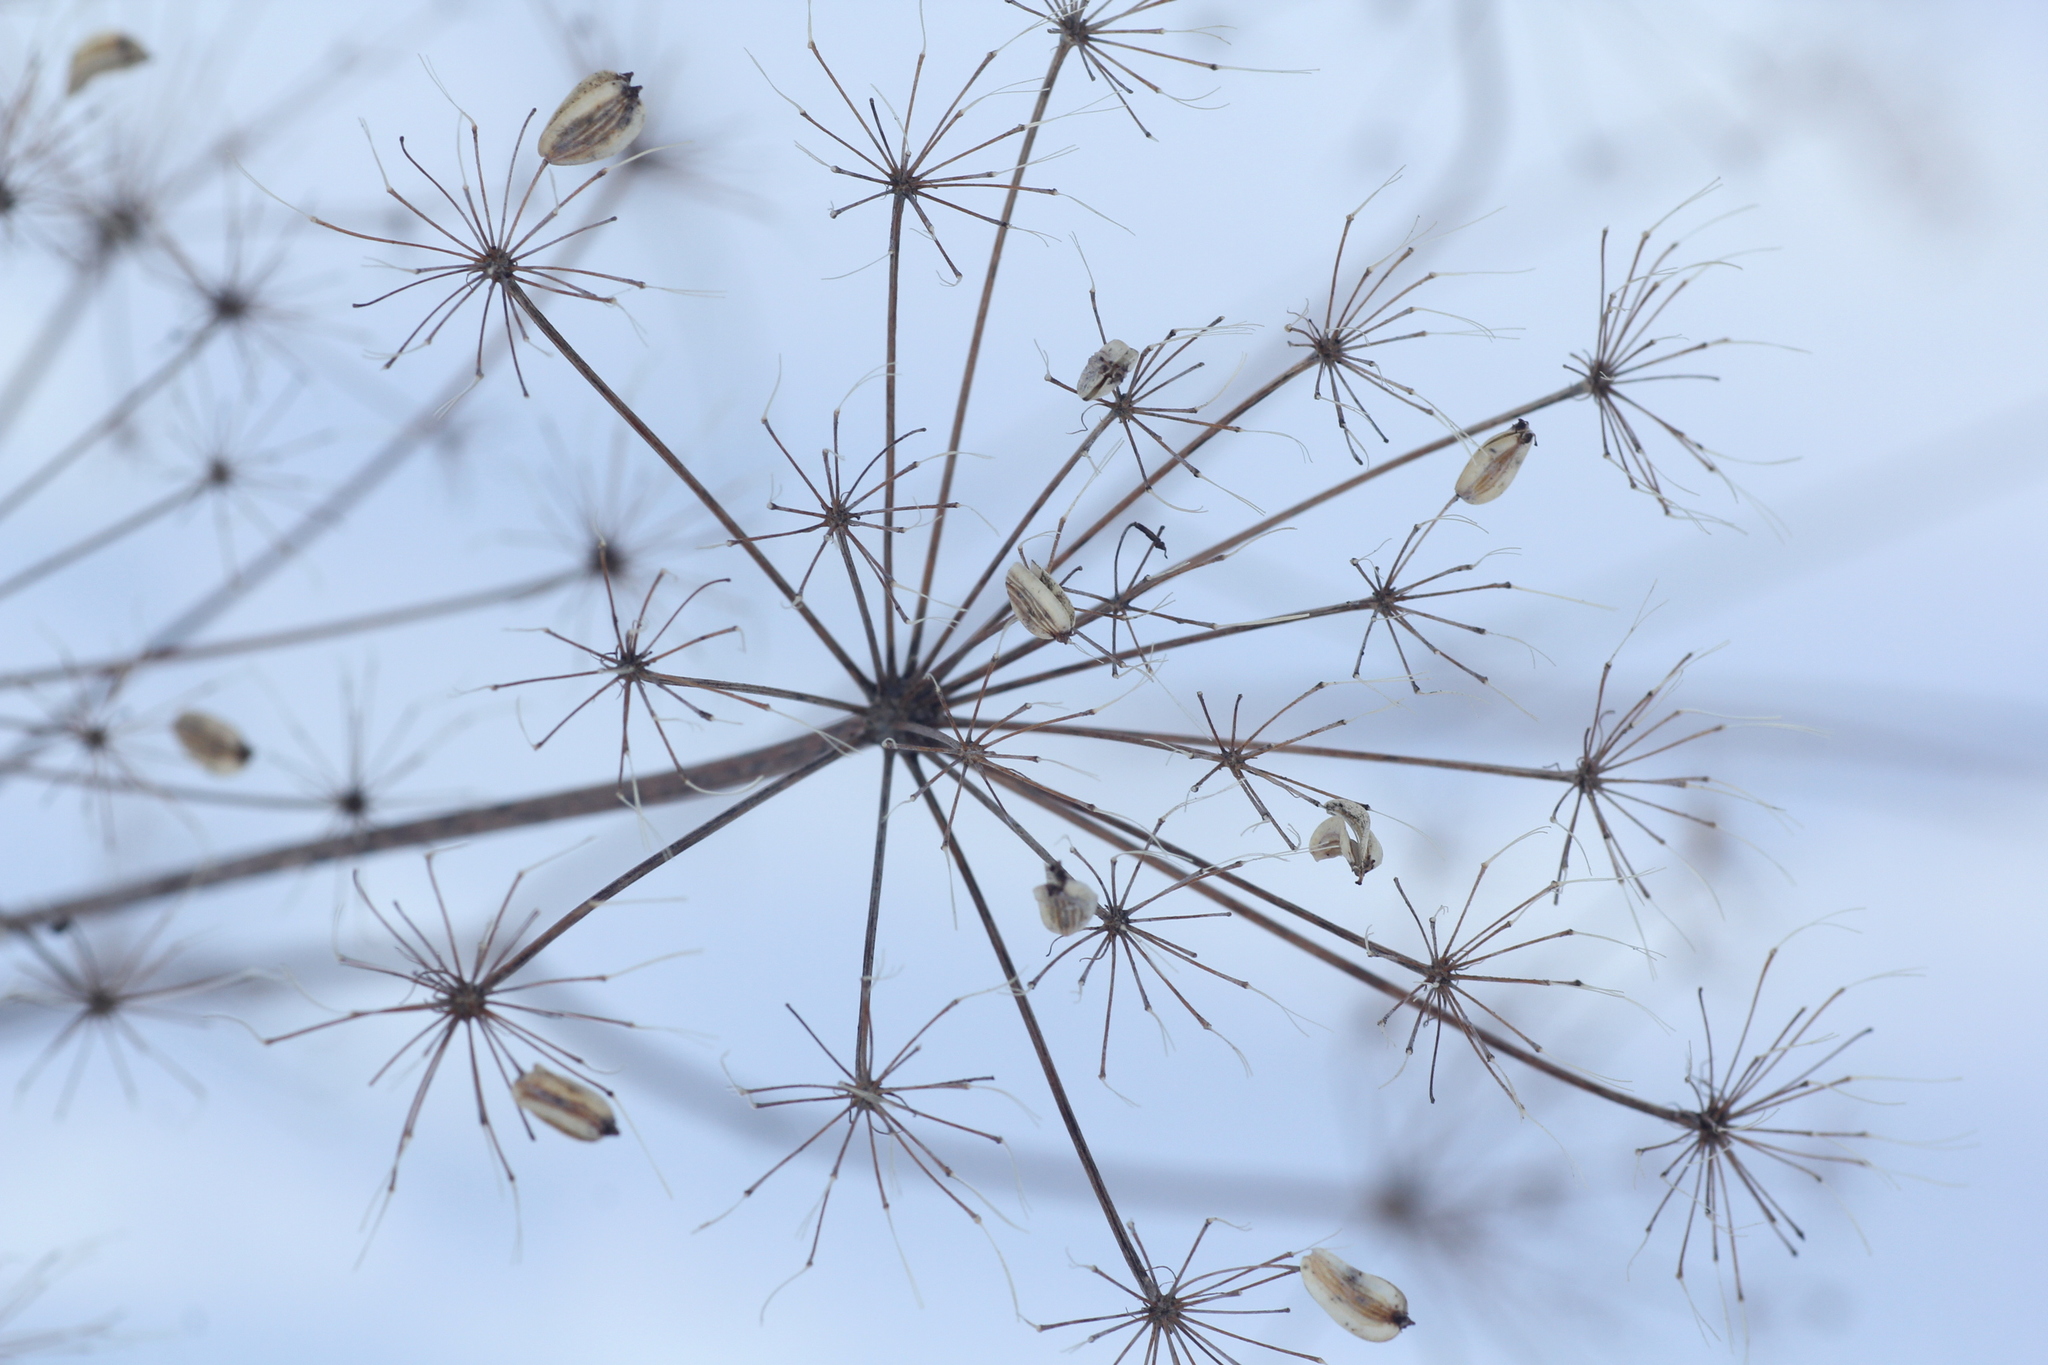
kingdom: Plantae
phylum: Tracheophyta
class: Magnoliopsida
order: Apiales
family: Apiaceae
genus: Peucedanum
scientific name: Peucedanum morisonii
